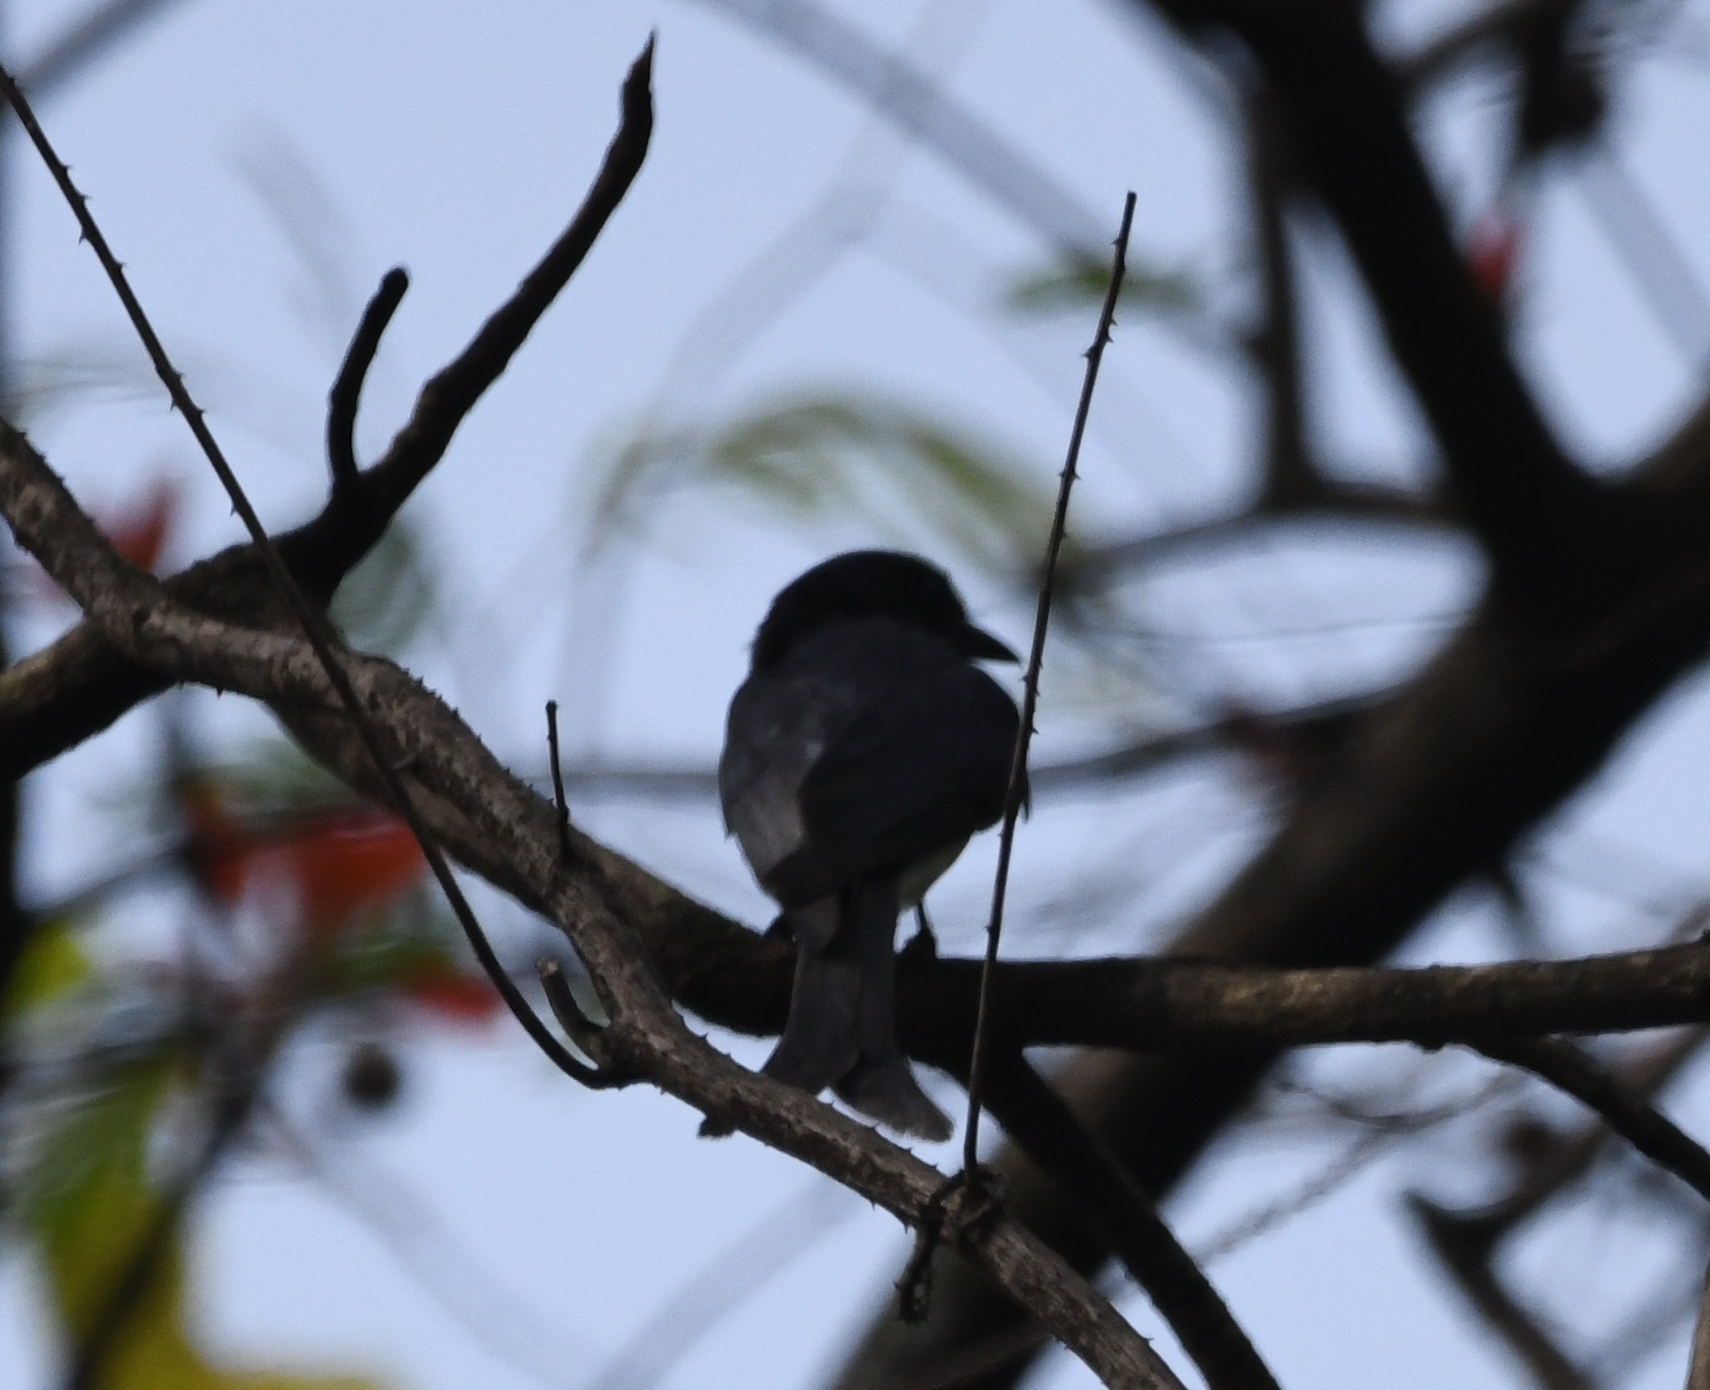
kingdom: Animalia
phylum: Chordata
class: Aves
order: Passeriformes
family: Dicruridae
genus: Dicrurus
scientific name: Dicrurus caerulescens
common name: White-bellied drongo
